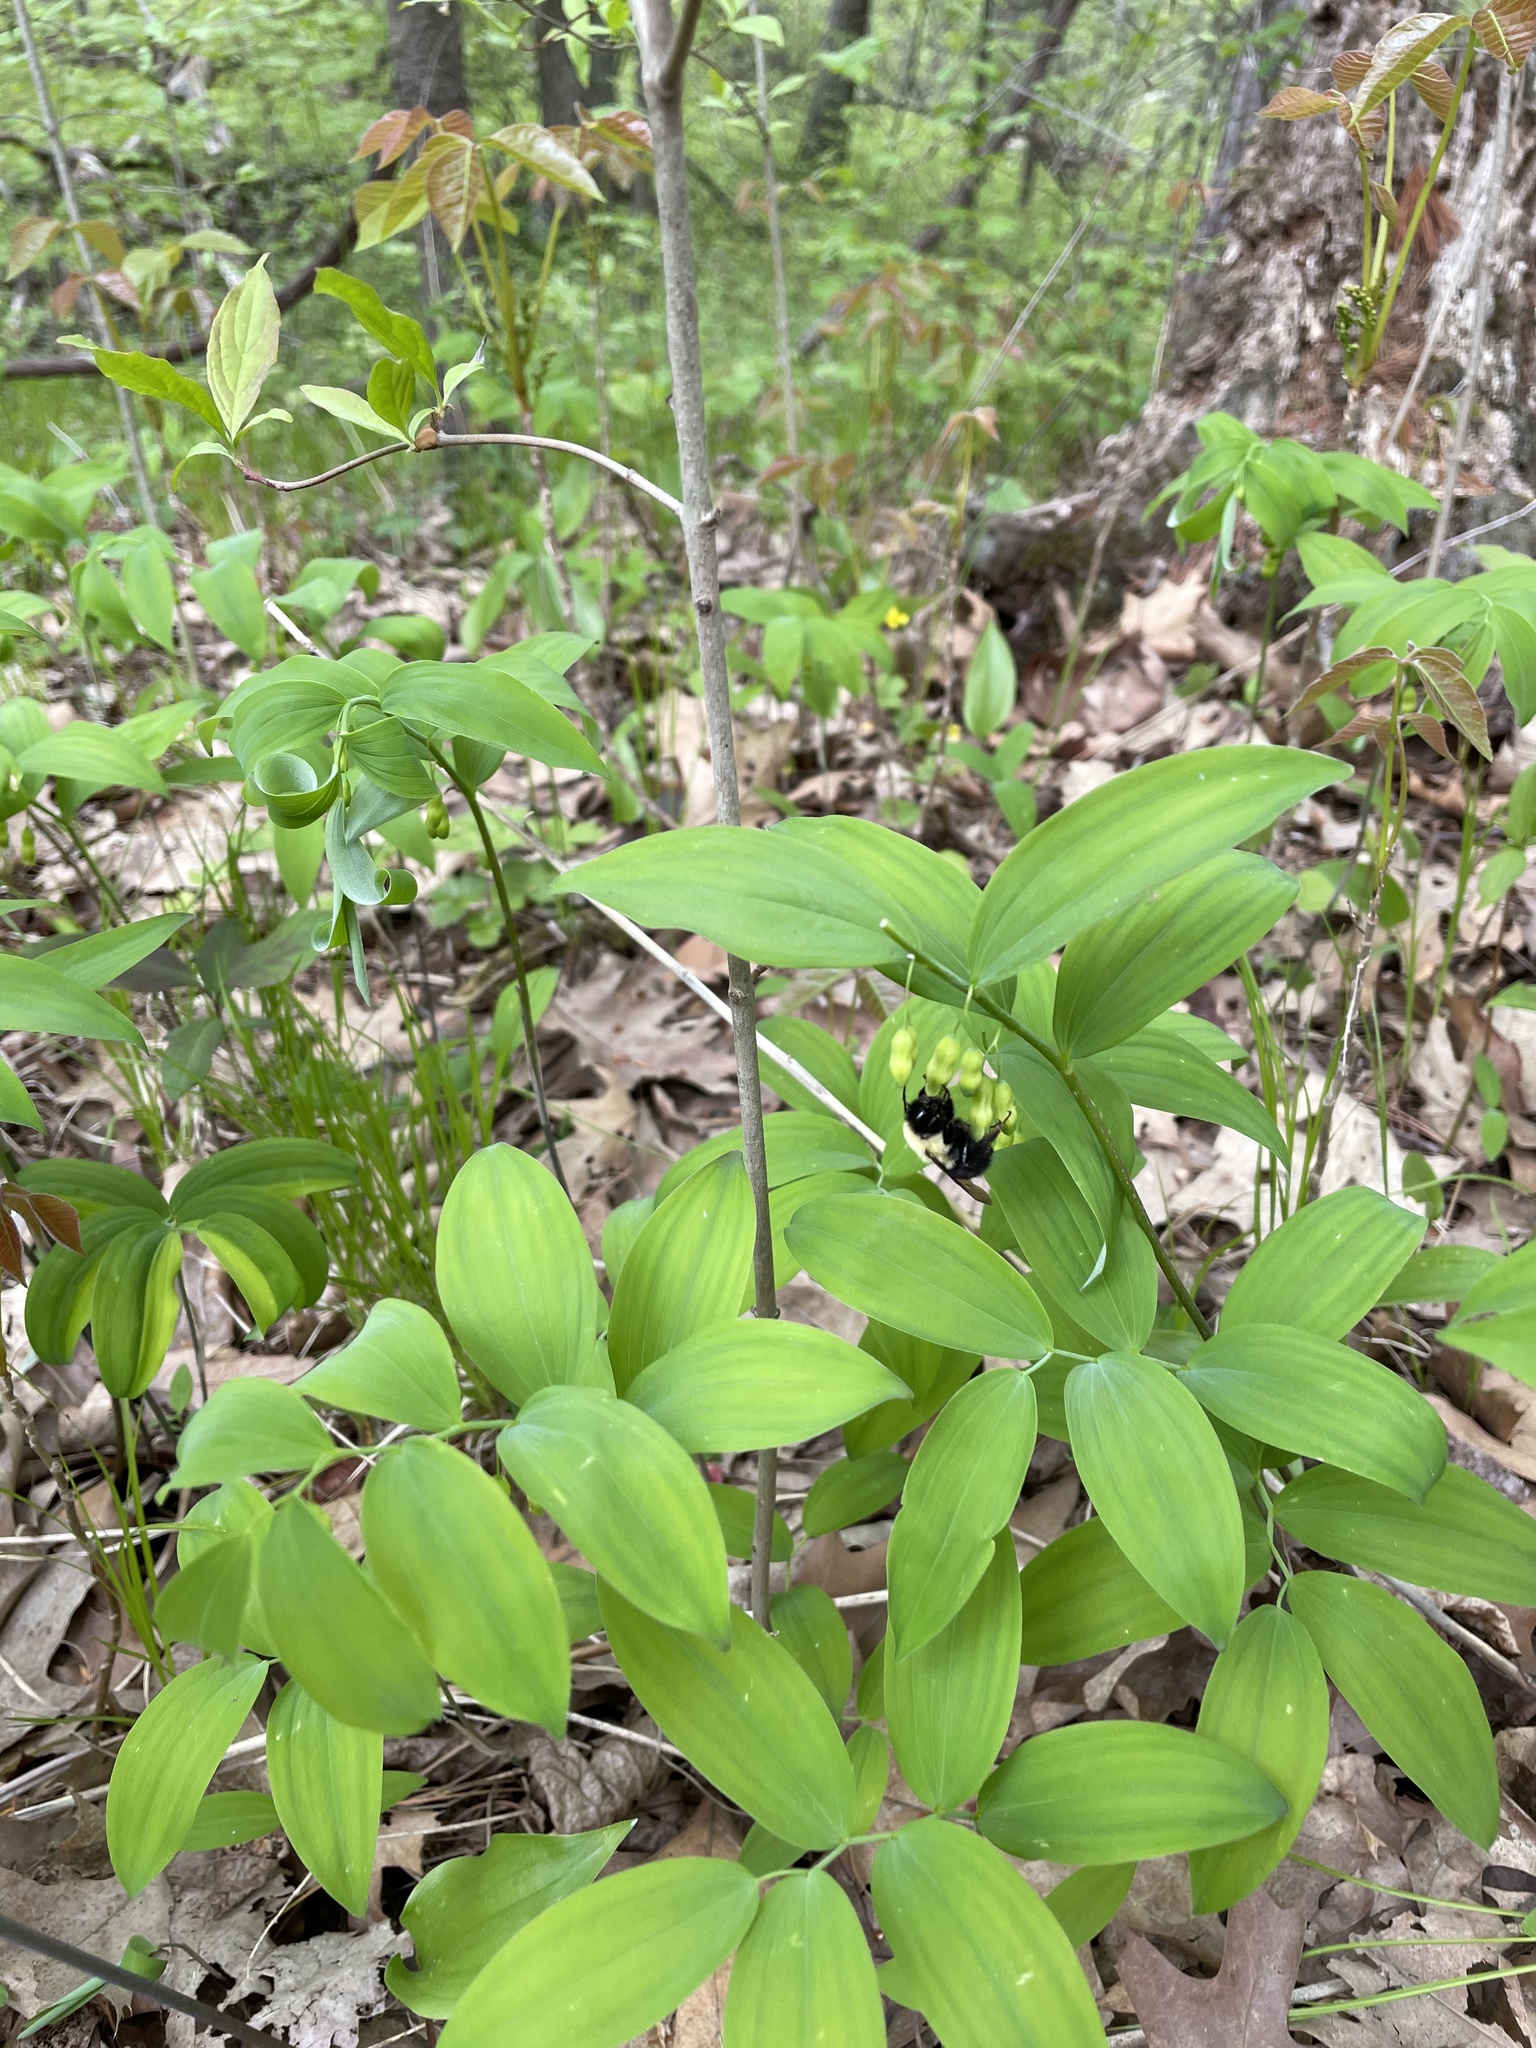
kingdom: Animalia
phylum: Arthropoda
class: Insecta
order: Hymenoptera
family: Apidae
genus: Bombus
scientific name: Bombus bimaculatus
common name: Two-spotted bumble bee
